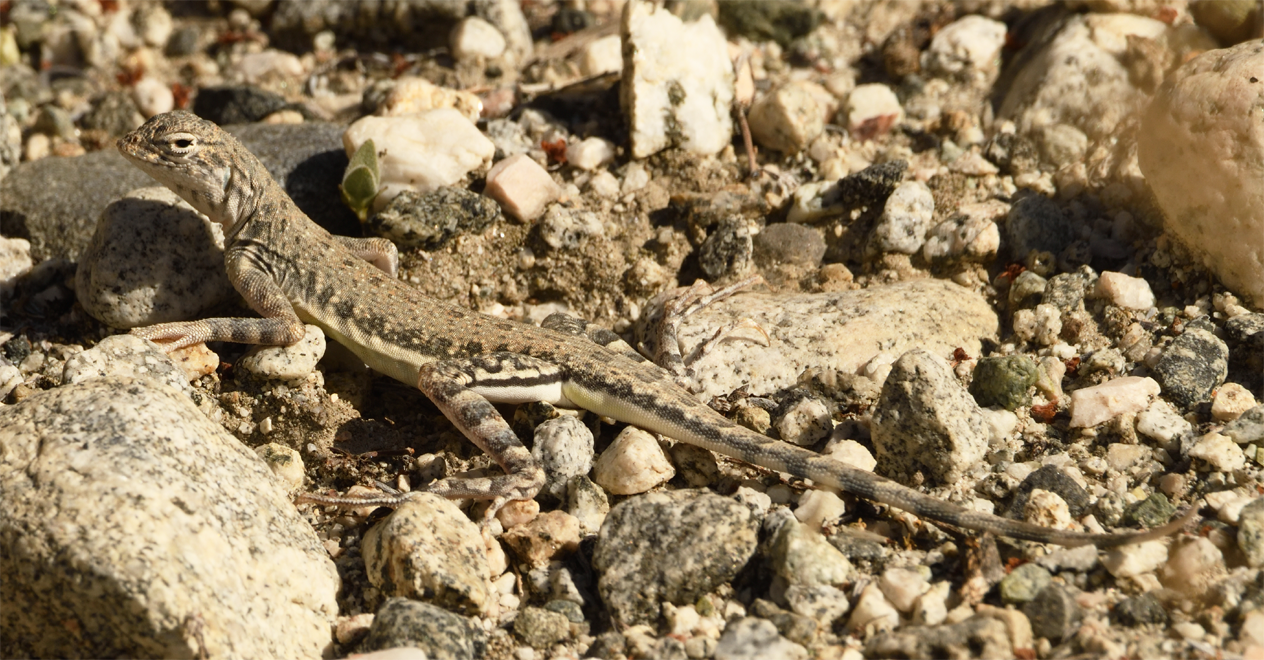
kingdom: Animalia
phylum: Chordata
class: Squamata
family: Phrynosomatidae
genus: Callisaurus
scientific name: Callisaurus draconoides
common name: Zebra-tailed lizard
